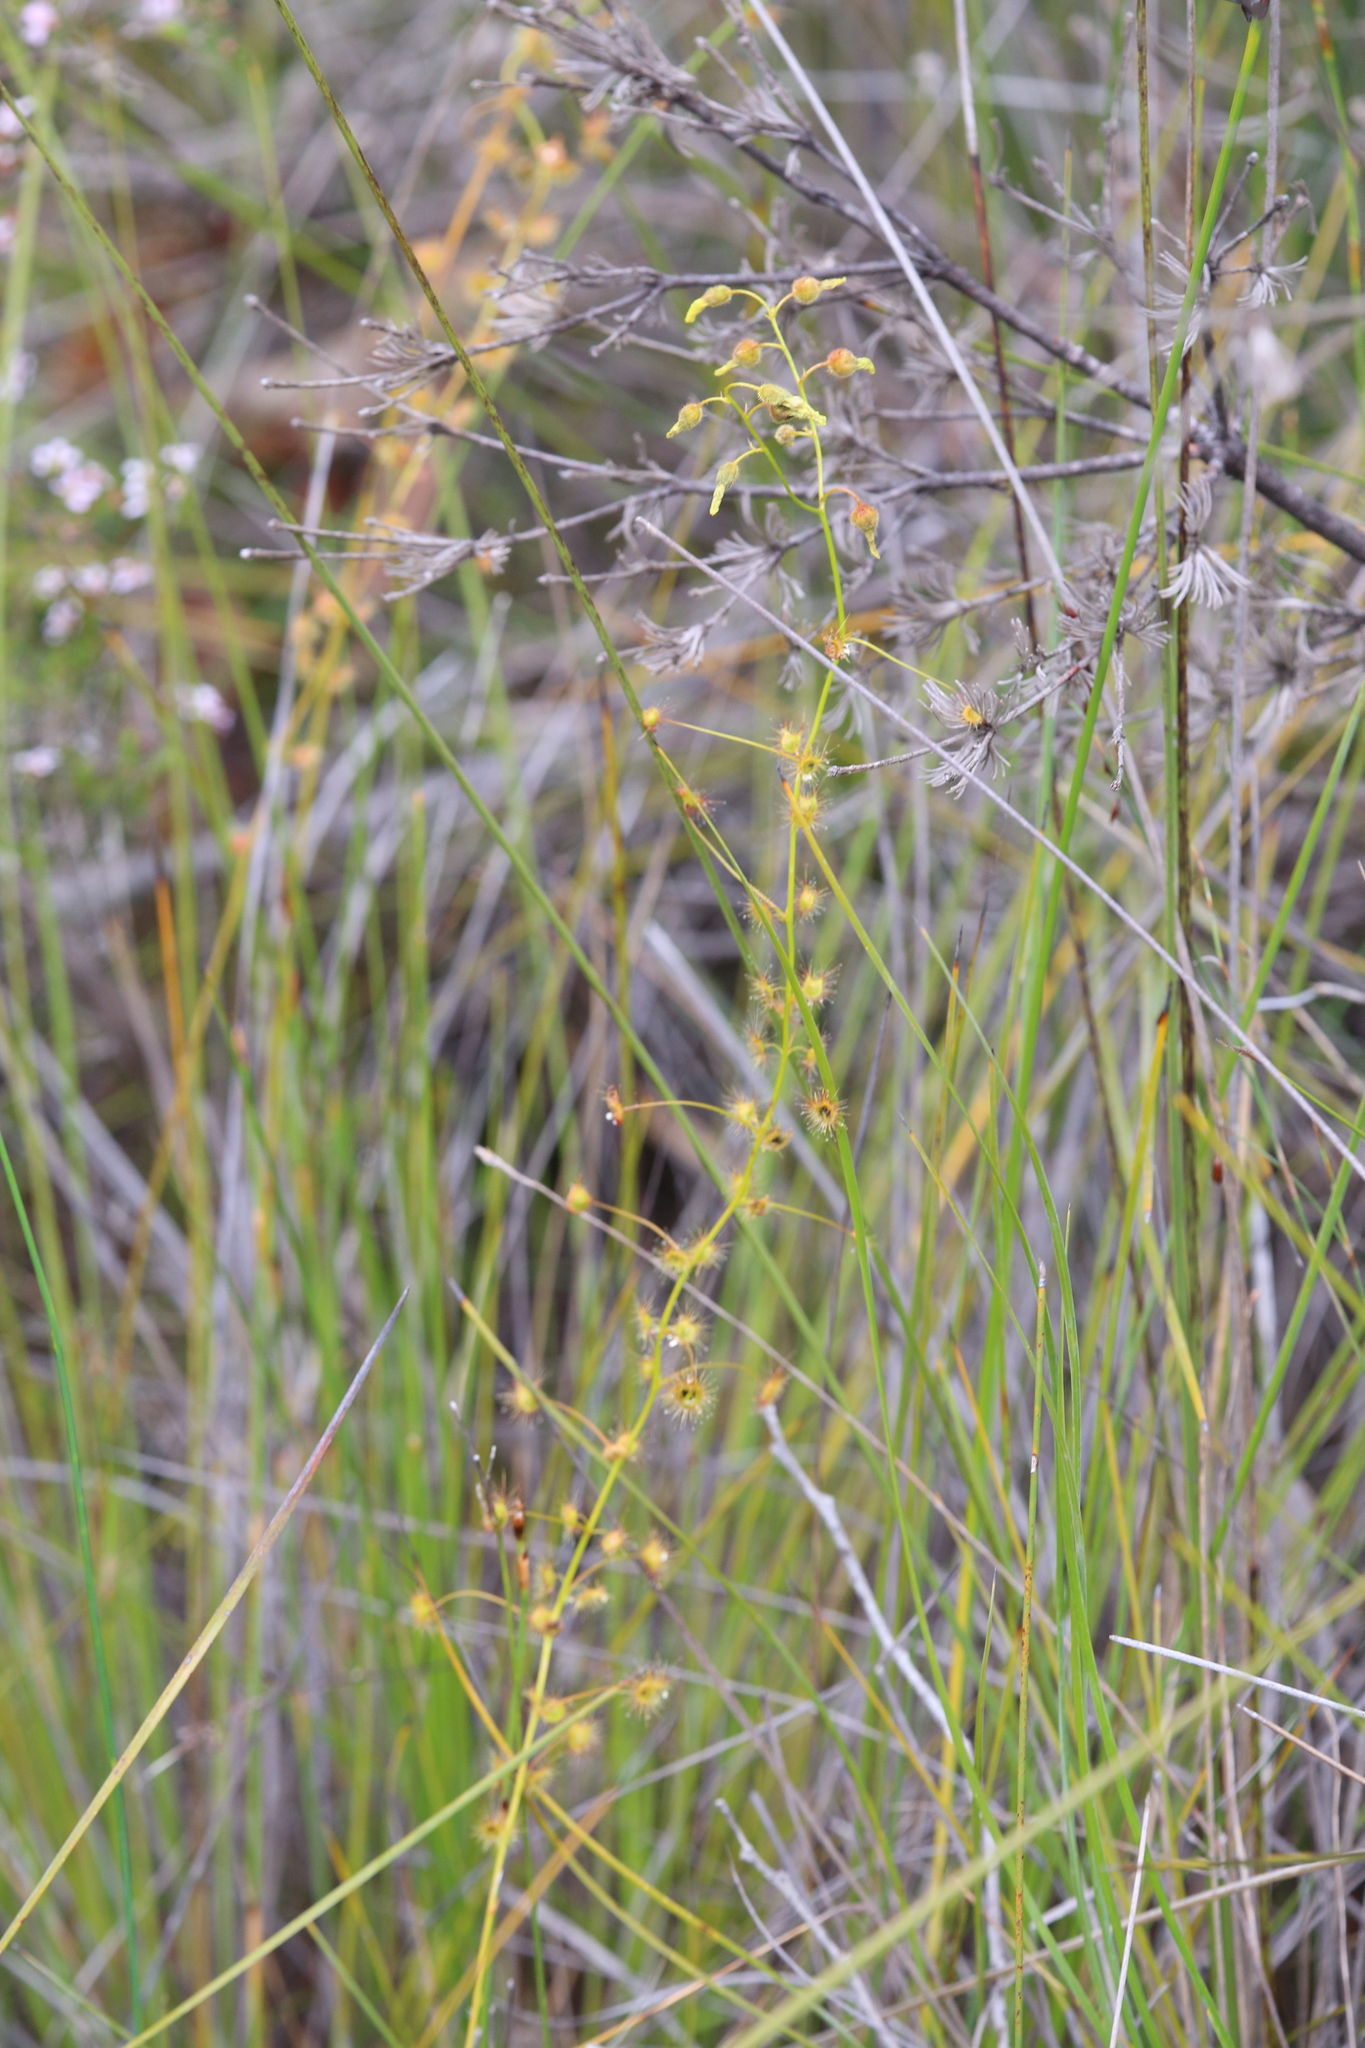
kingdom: Plantae
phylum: Tracheophyta
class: Magnoliopsida
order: Caryophyllales
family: Droseraceae
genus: Drosera
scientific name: Drosera sulphurea
